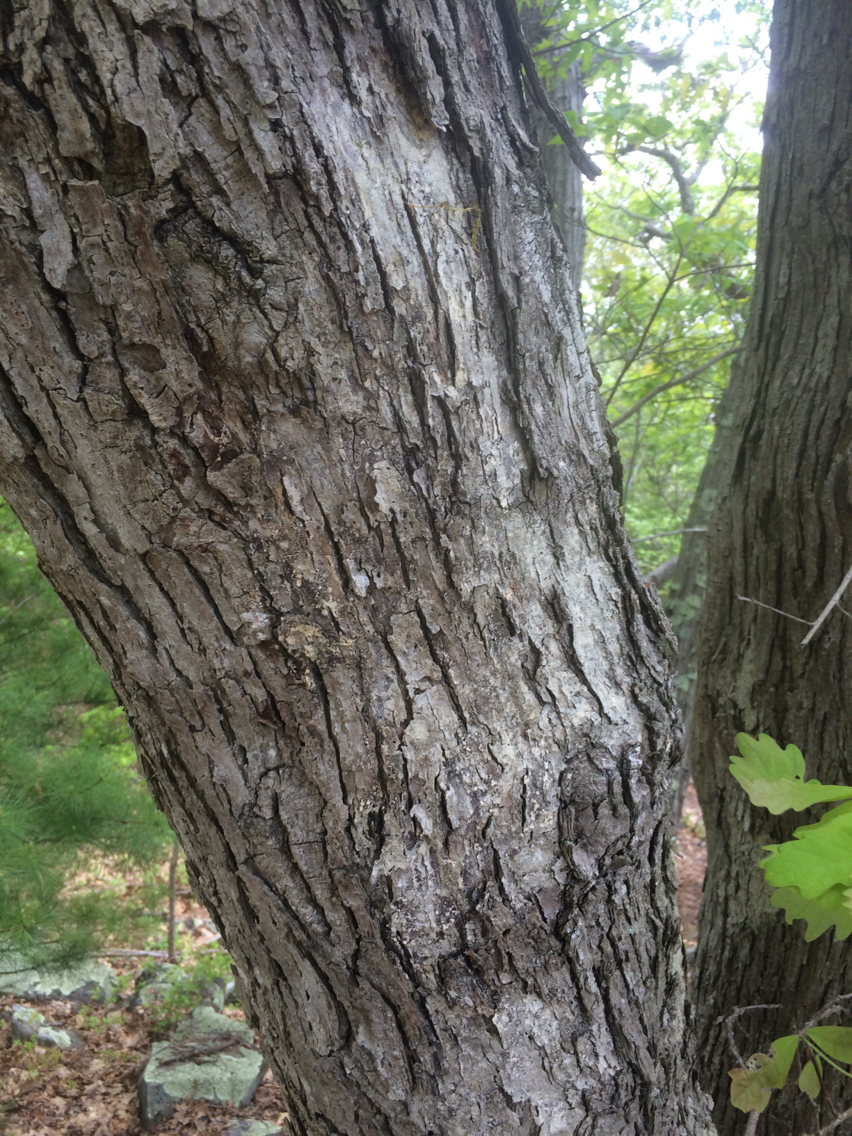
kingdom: Plantae
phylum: Tracheophyta
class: Magnoliopsida
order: Fagales
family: Fagaceae
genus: Quercus
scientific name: Quercus alba
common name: White oak
